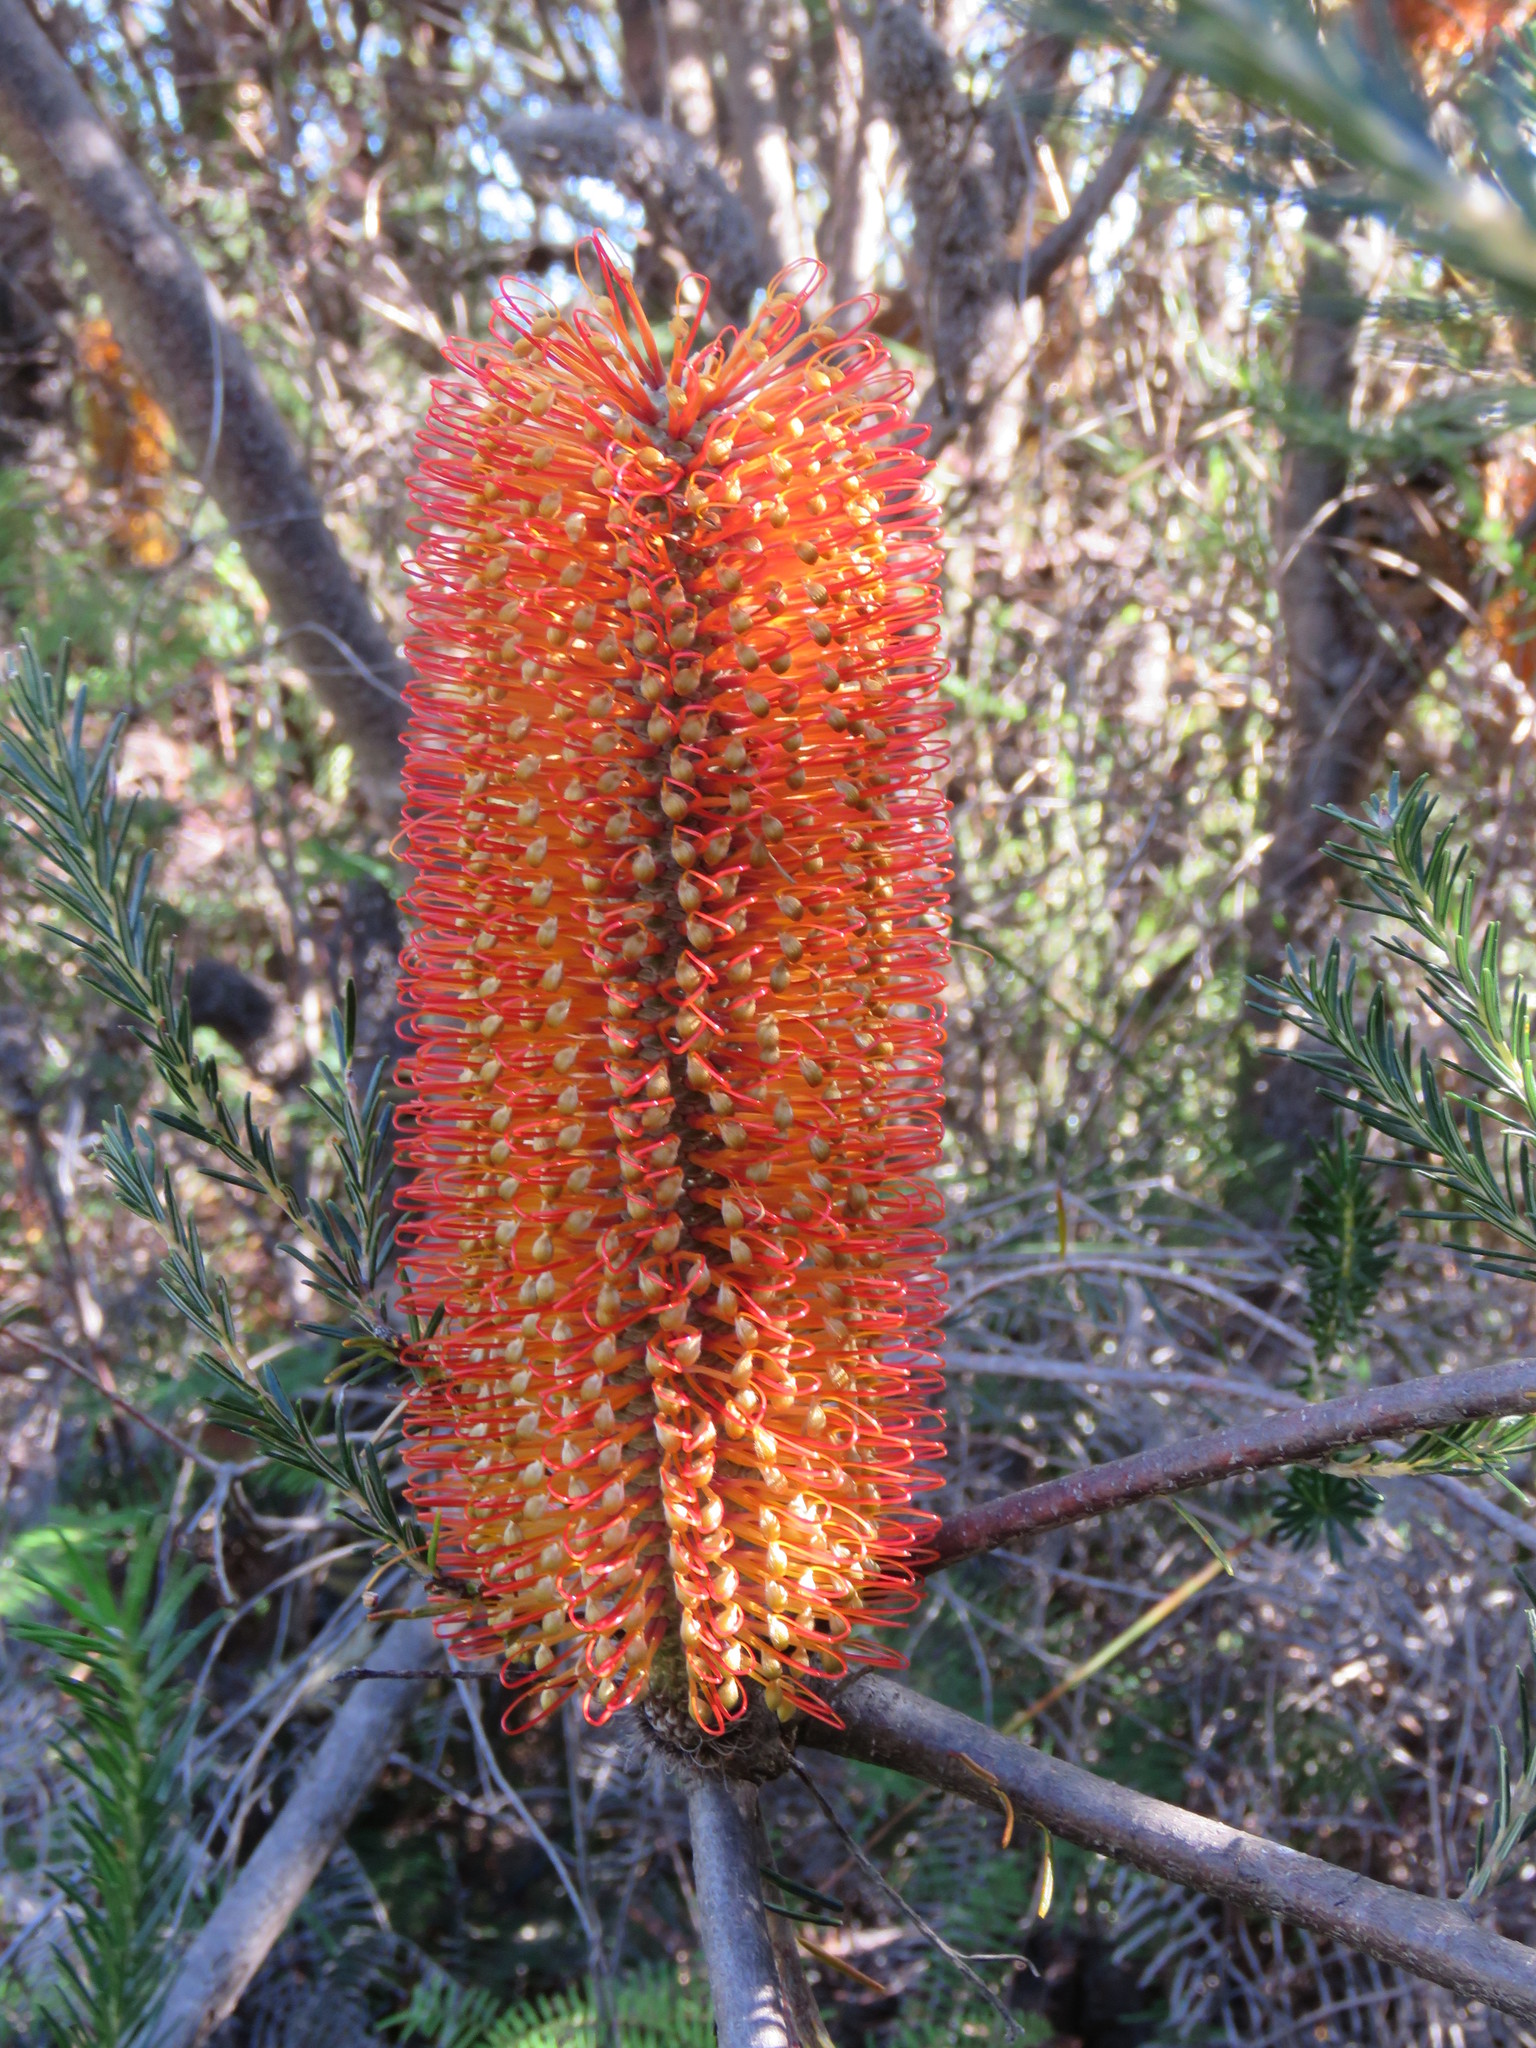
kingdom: Plantae
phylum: Tracheophyta
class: Magnoliopsida
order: Proteales
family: Proteaceae
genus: Banksia
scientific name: Banksia ericifolia
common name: Heath-leaf banksia
